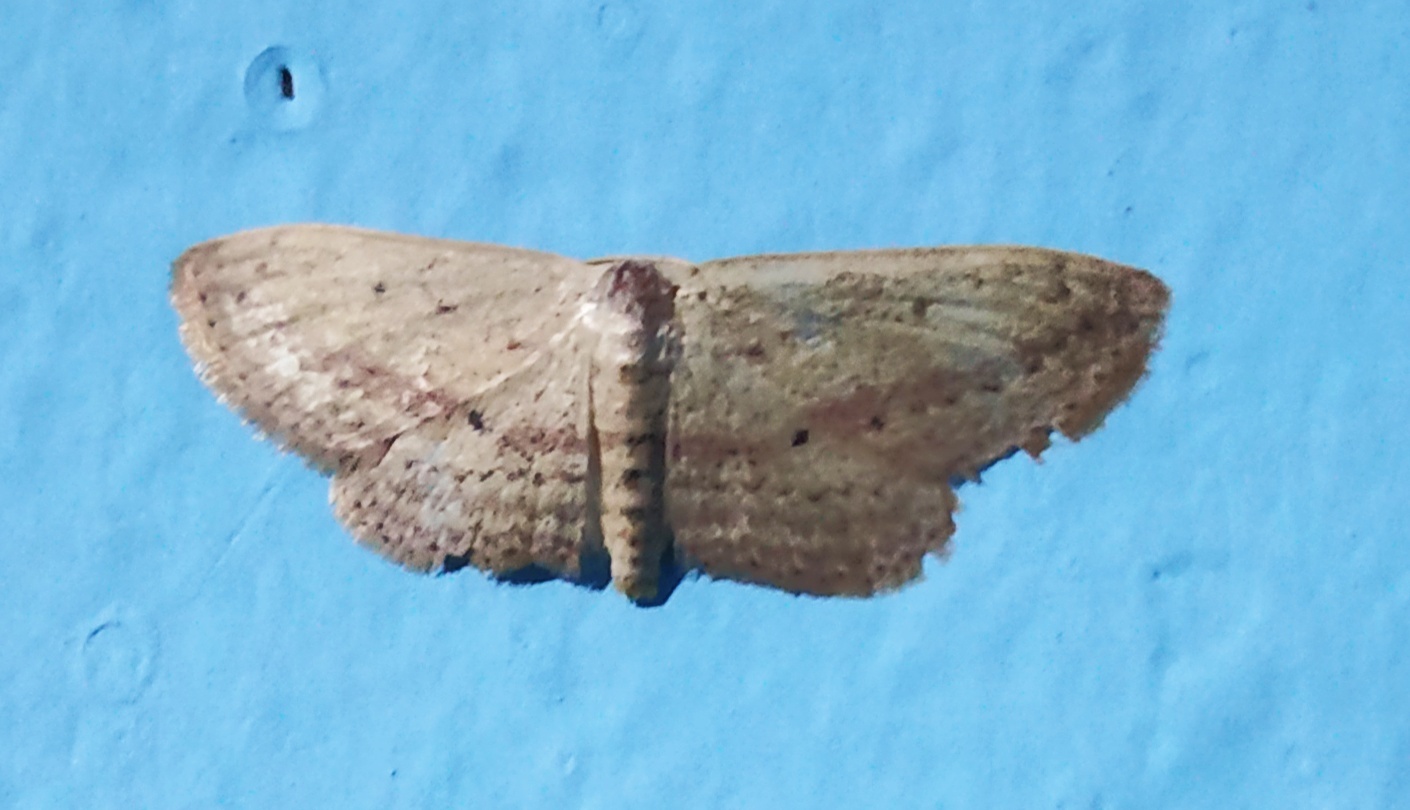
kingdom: Animalia
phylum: Arthropoda
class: Insecta
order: Lepidoptera
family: Geometridae
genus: Scopula
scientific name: Scopula emissaria
